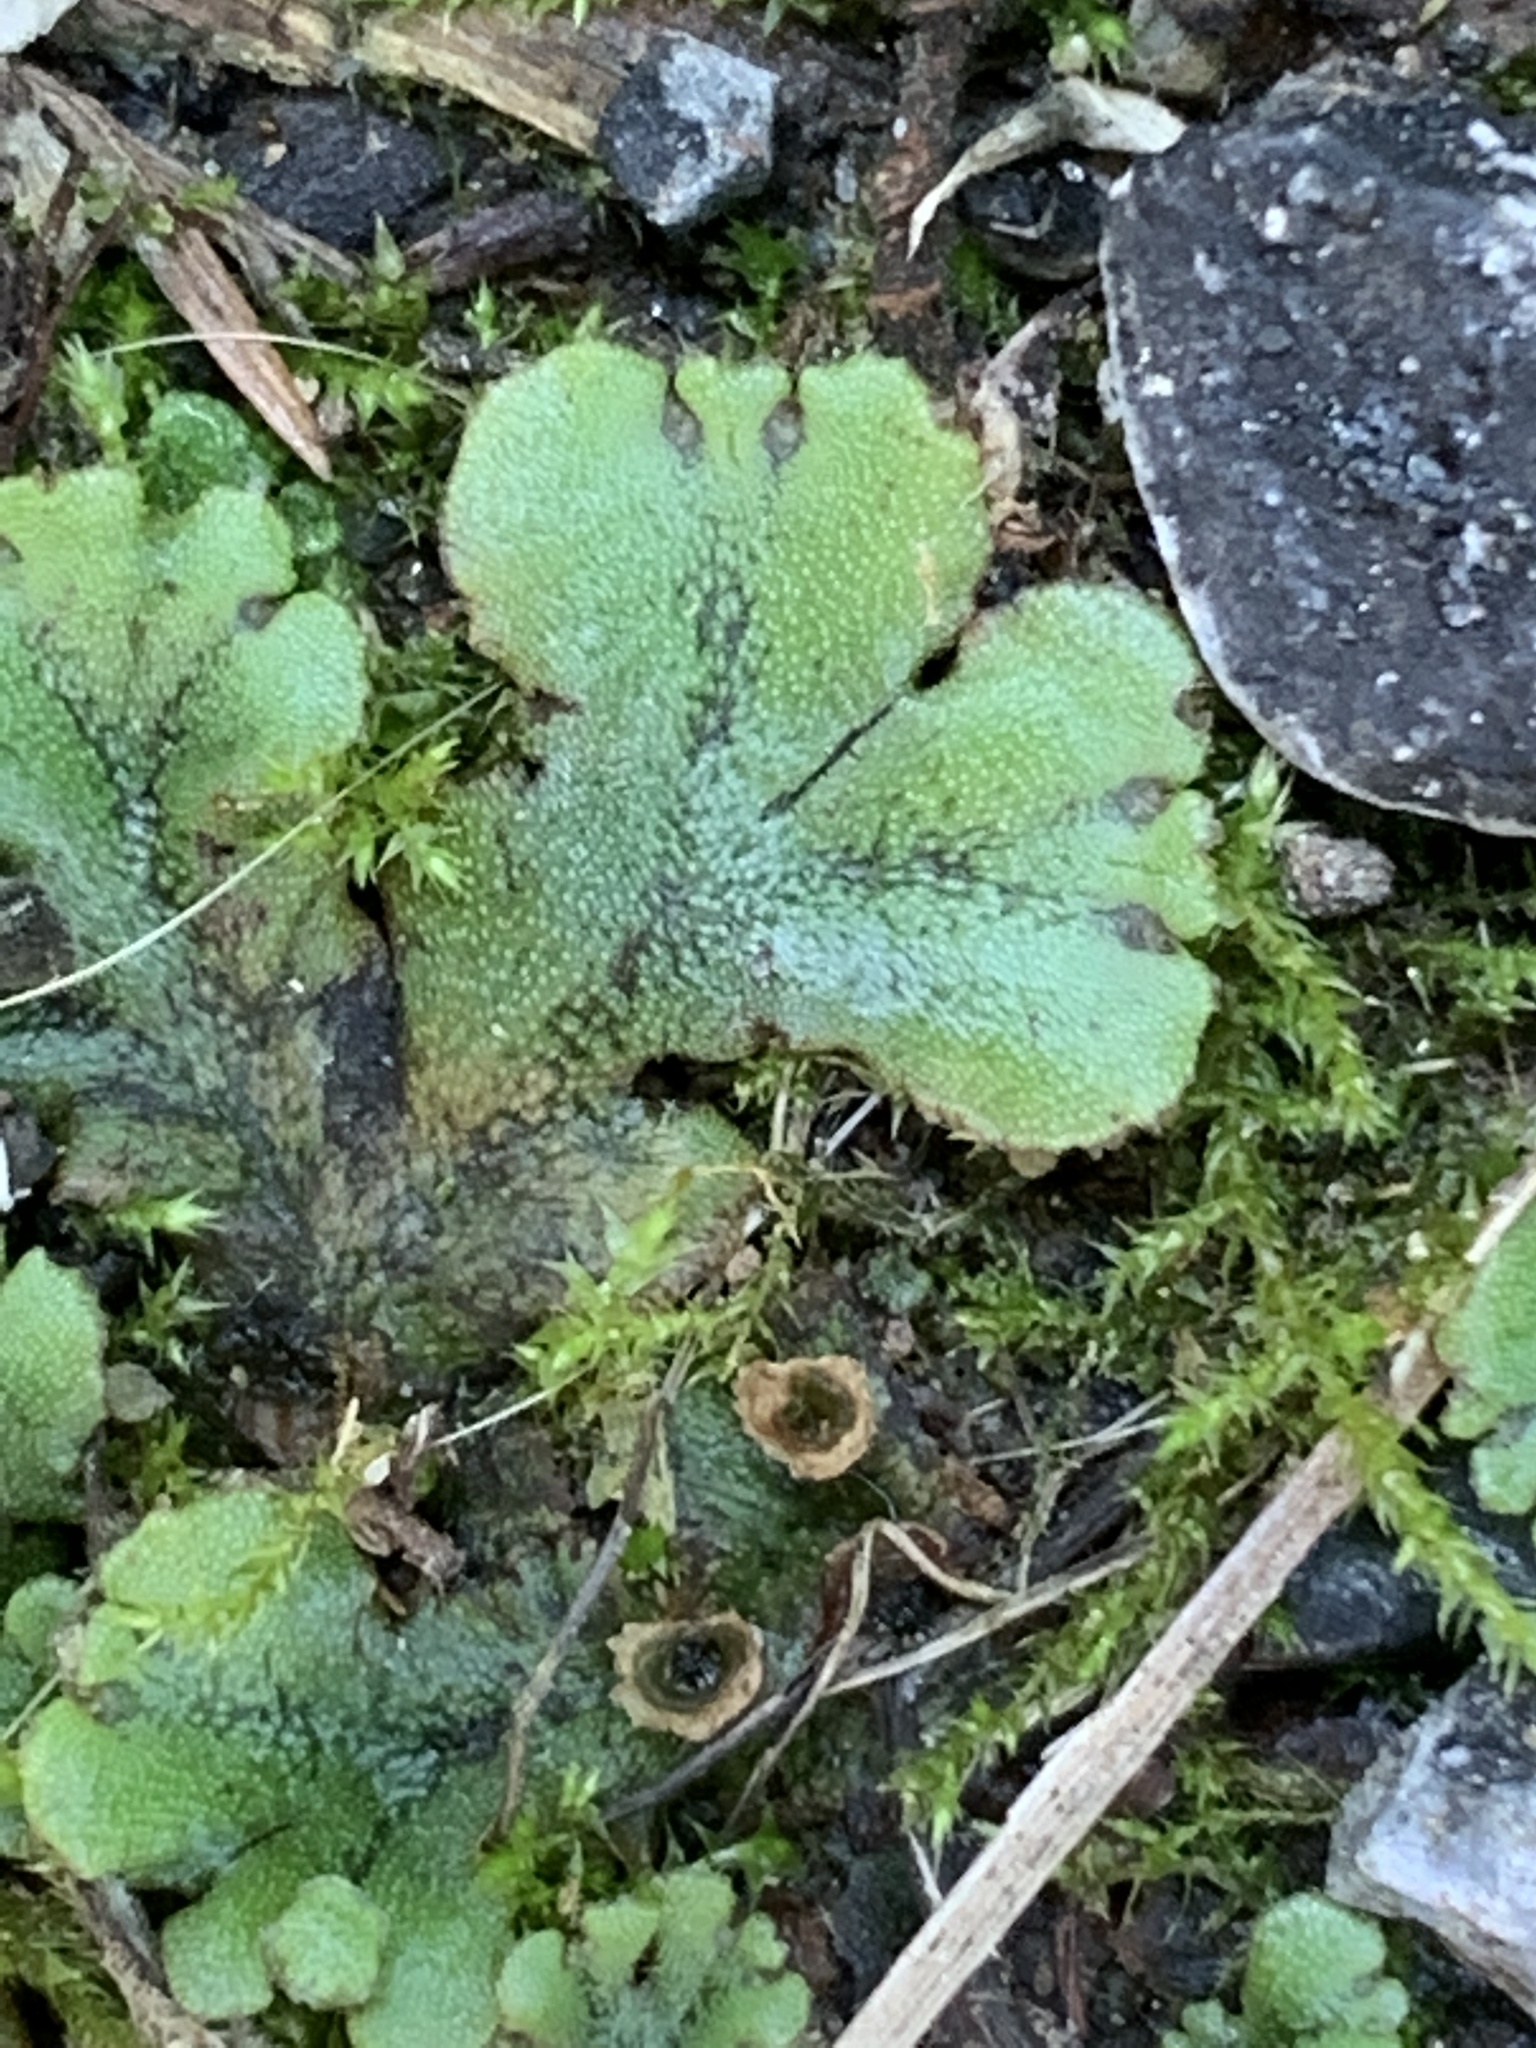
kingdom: Plantae
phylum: Marchantiophyta
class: Marchantiopsida
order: Marchantiales
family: Marchantiaceae
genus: Marchantia
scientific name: Marchantia polymorpha
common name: Common liverwort
